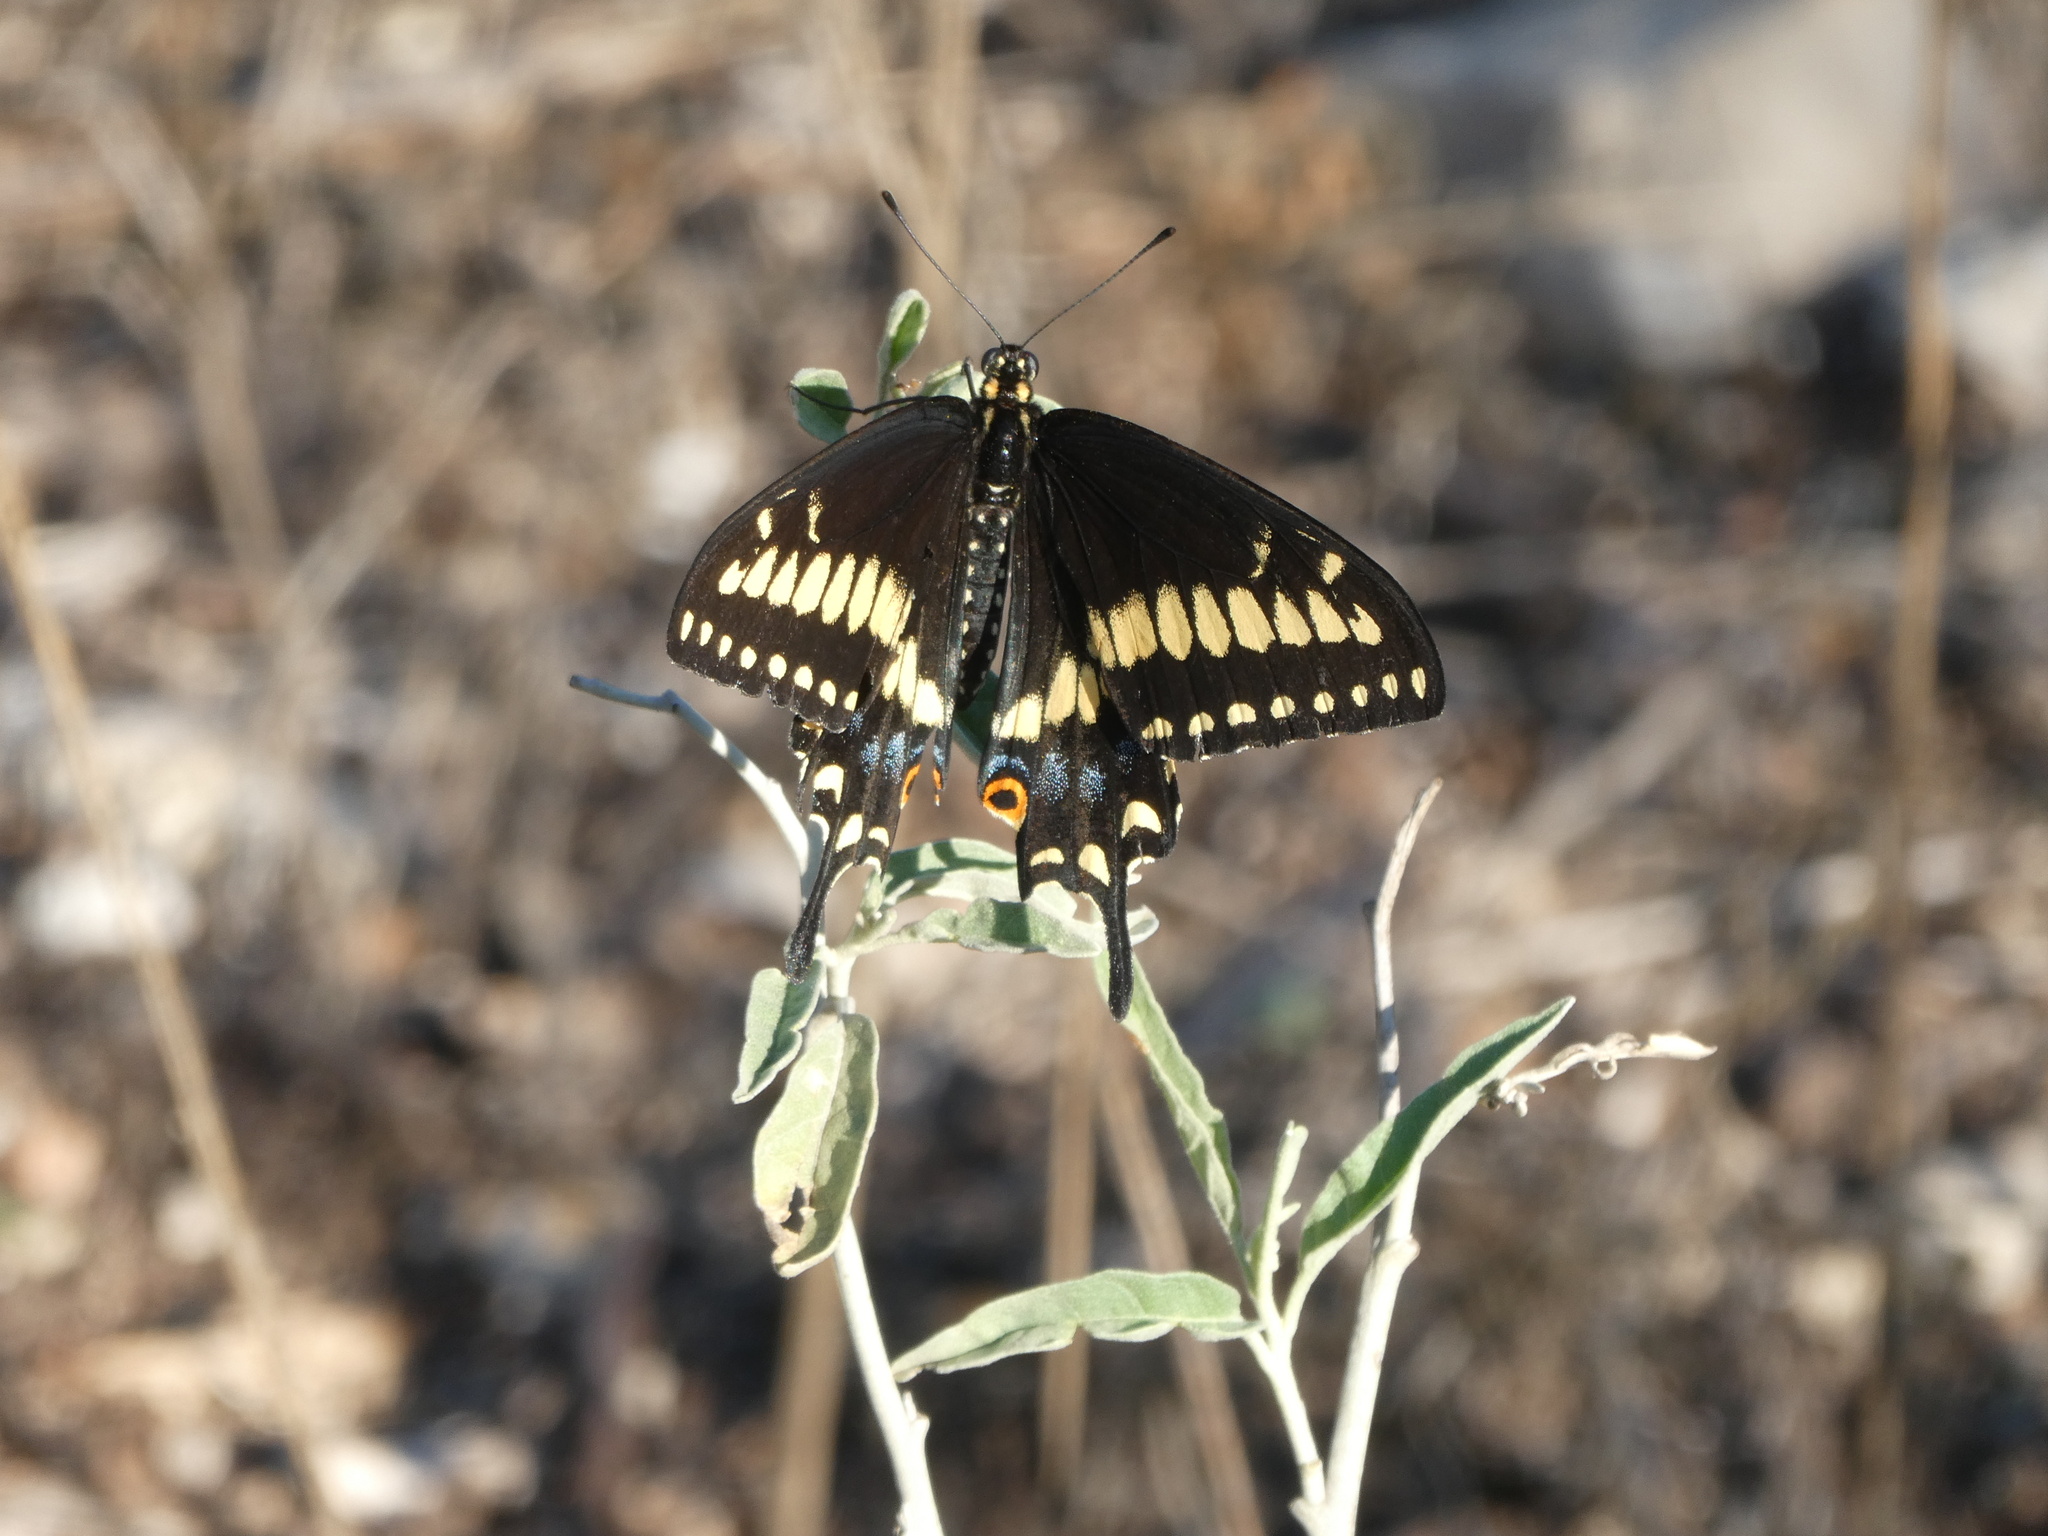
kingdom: Animalia
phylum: Arthropoda
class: Insecta
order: Lepidoptera
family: Papilionidae
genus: Papilio
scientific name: Papilio polyxenes
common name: Black swallowtail
